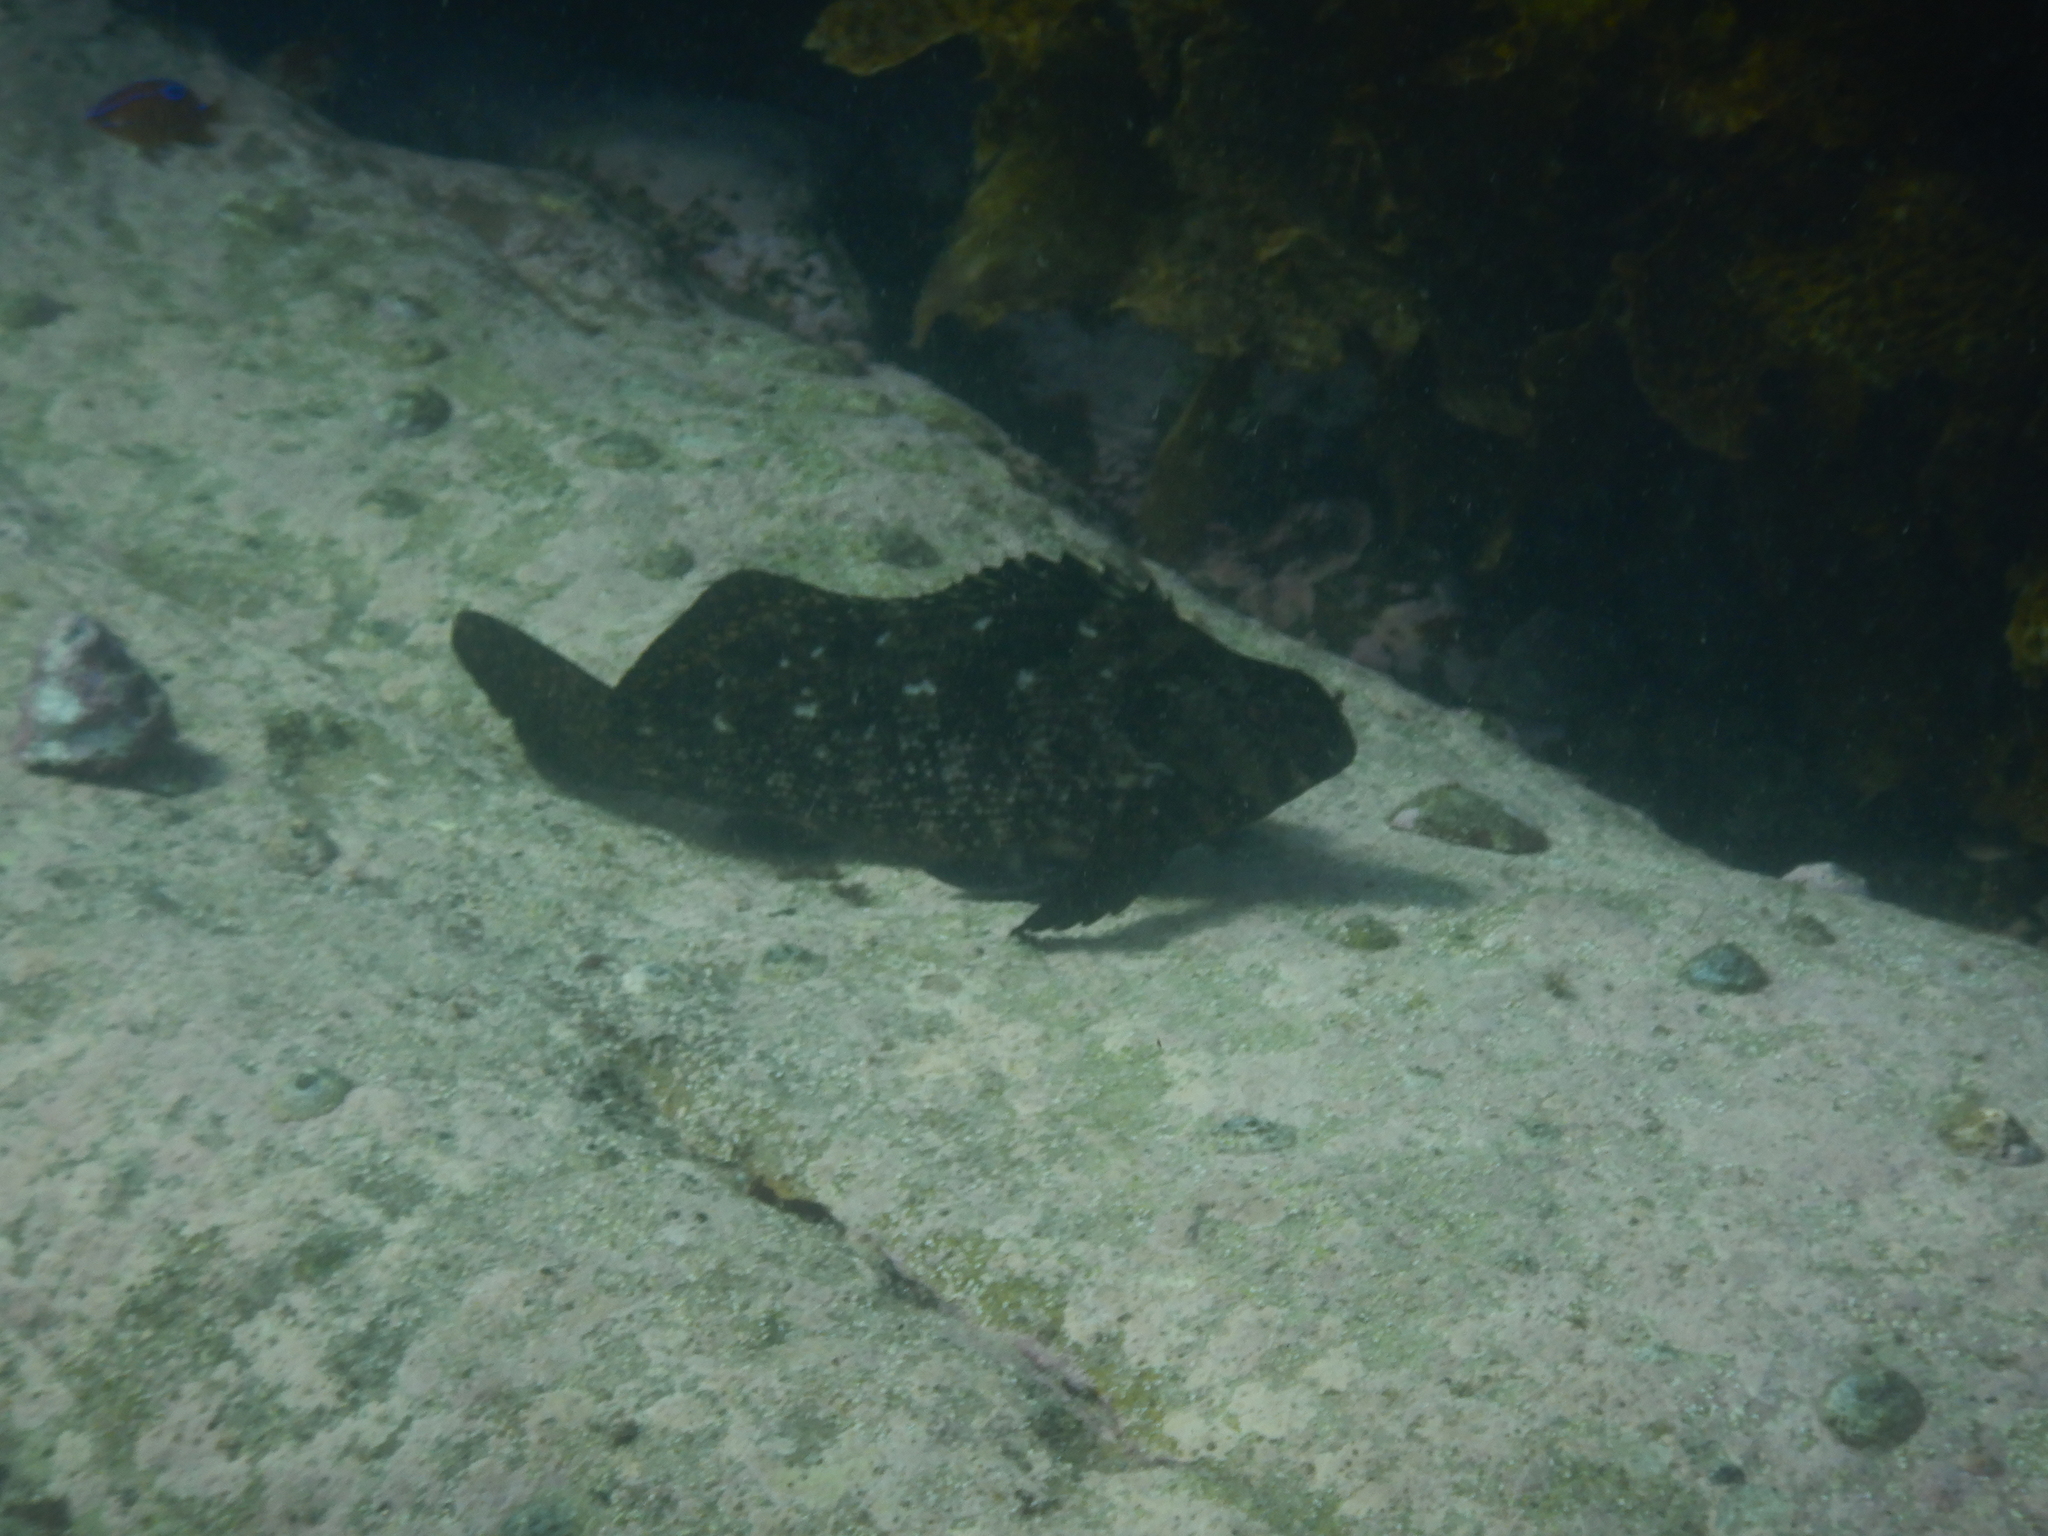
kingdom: Animalia
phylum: Chordata
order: Perciformes
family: Aplodactylidae
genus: Aplodactylus
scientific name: Aplodactylus lophodon
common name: Cockatoo fish
